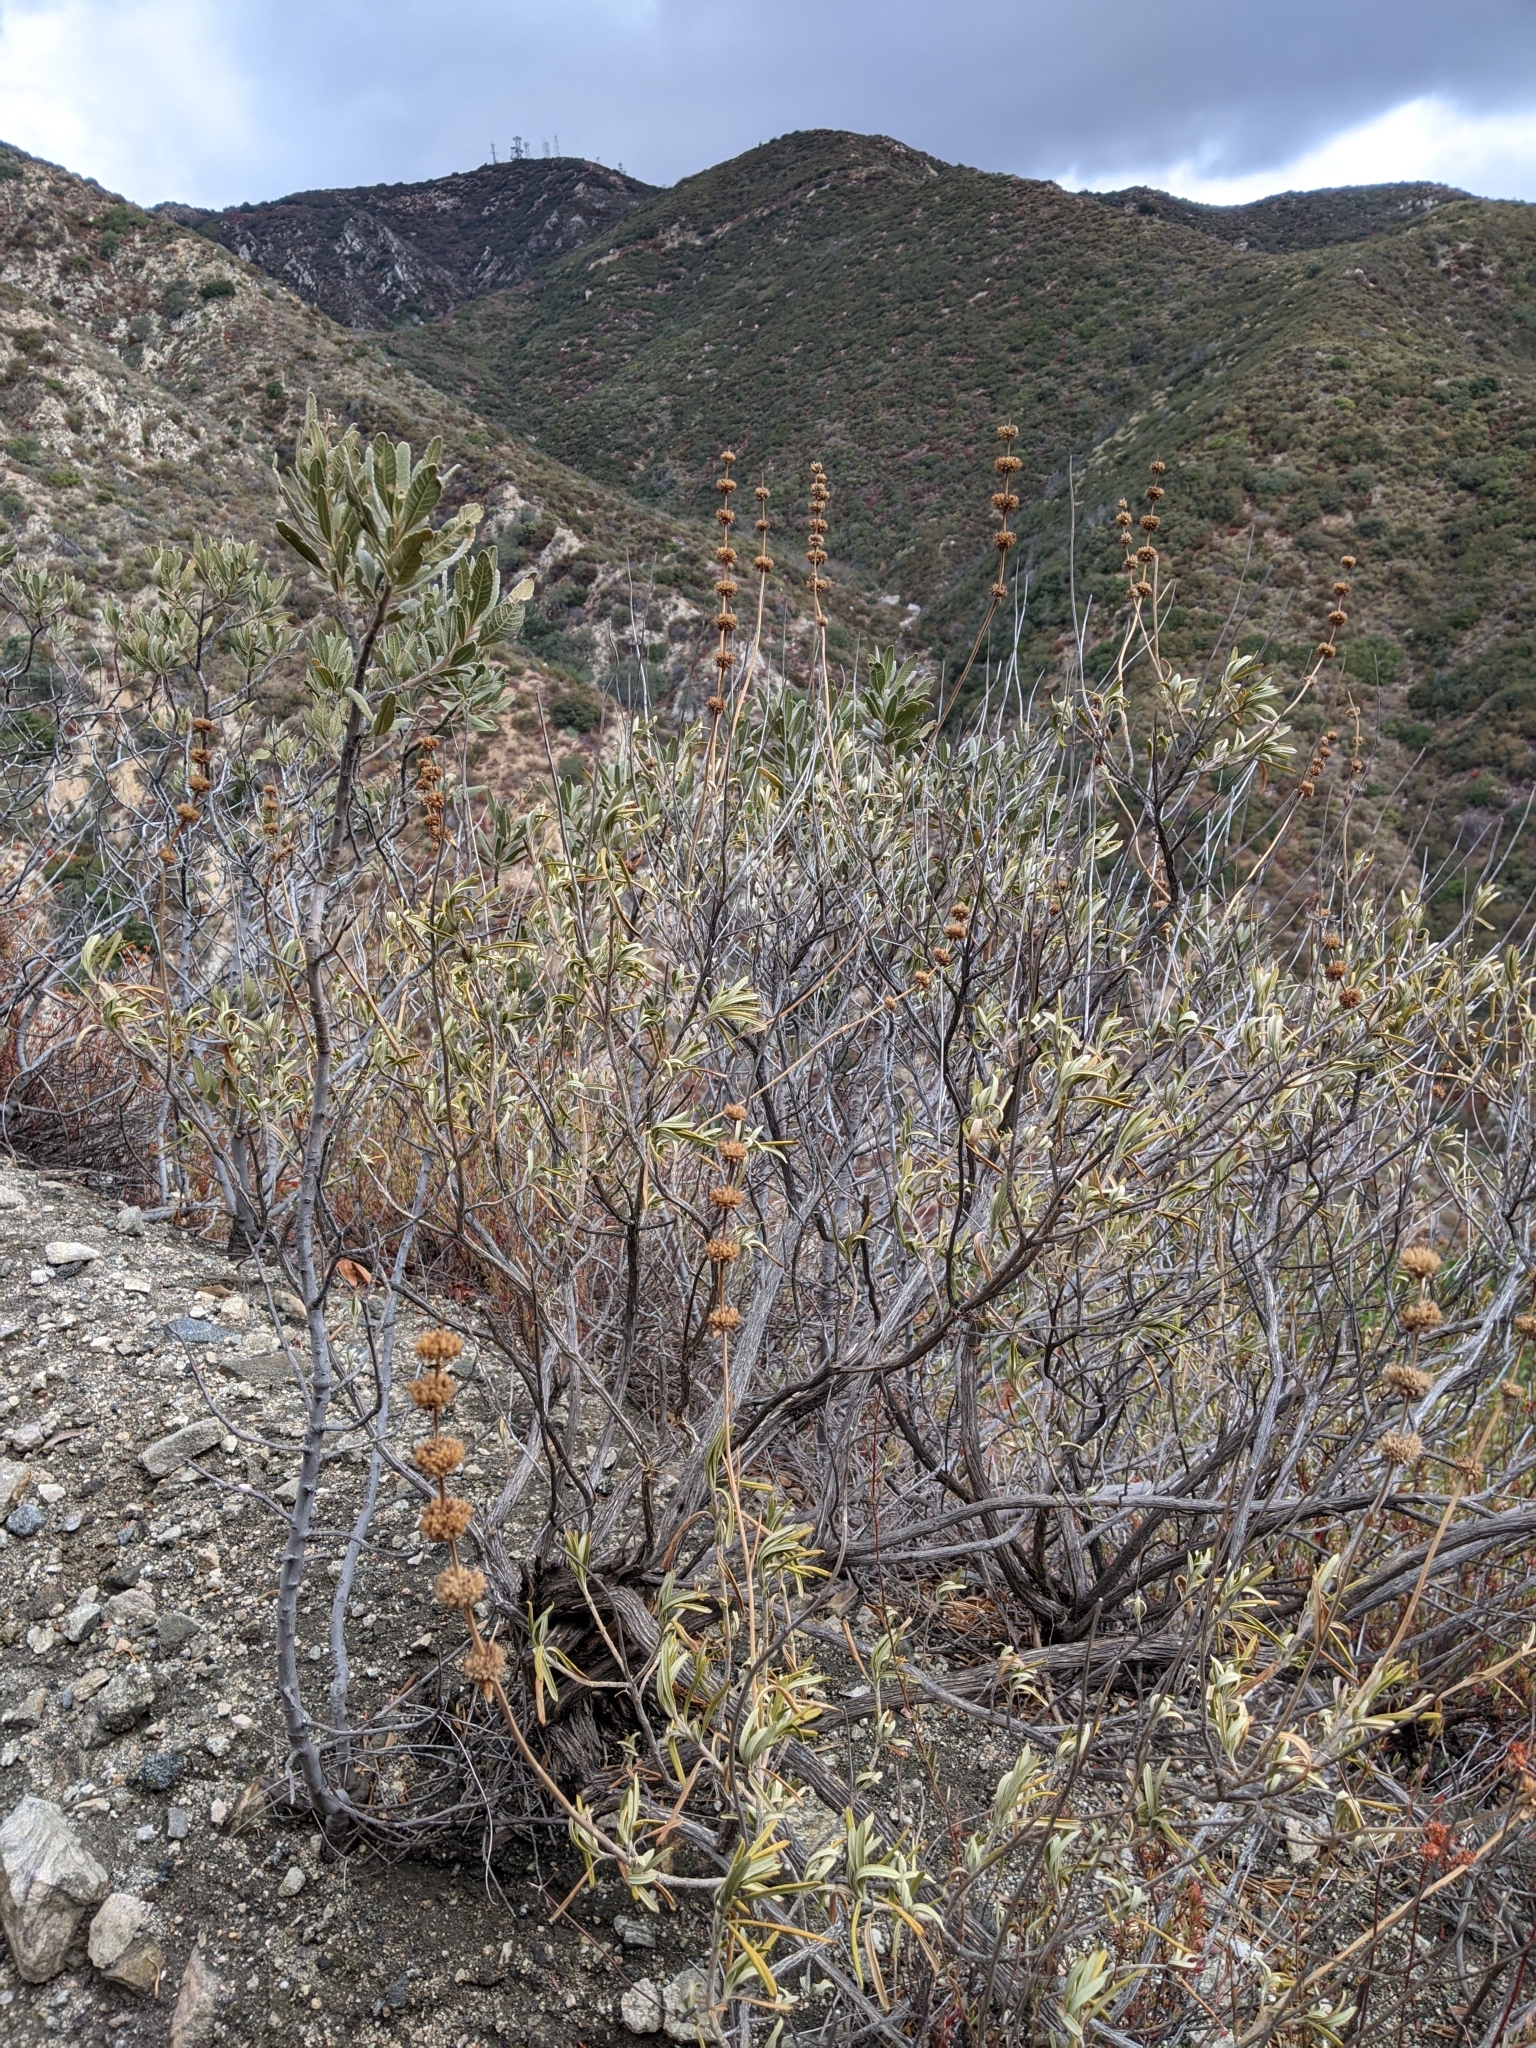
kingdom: Plantae
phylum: Tracheophyta
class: Magnoliopsida
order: Lamiales
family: Lamiaceae
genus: Salvia
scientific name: Salvia mellifera
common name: Black sage
